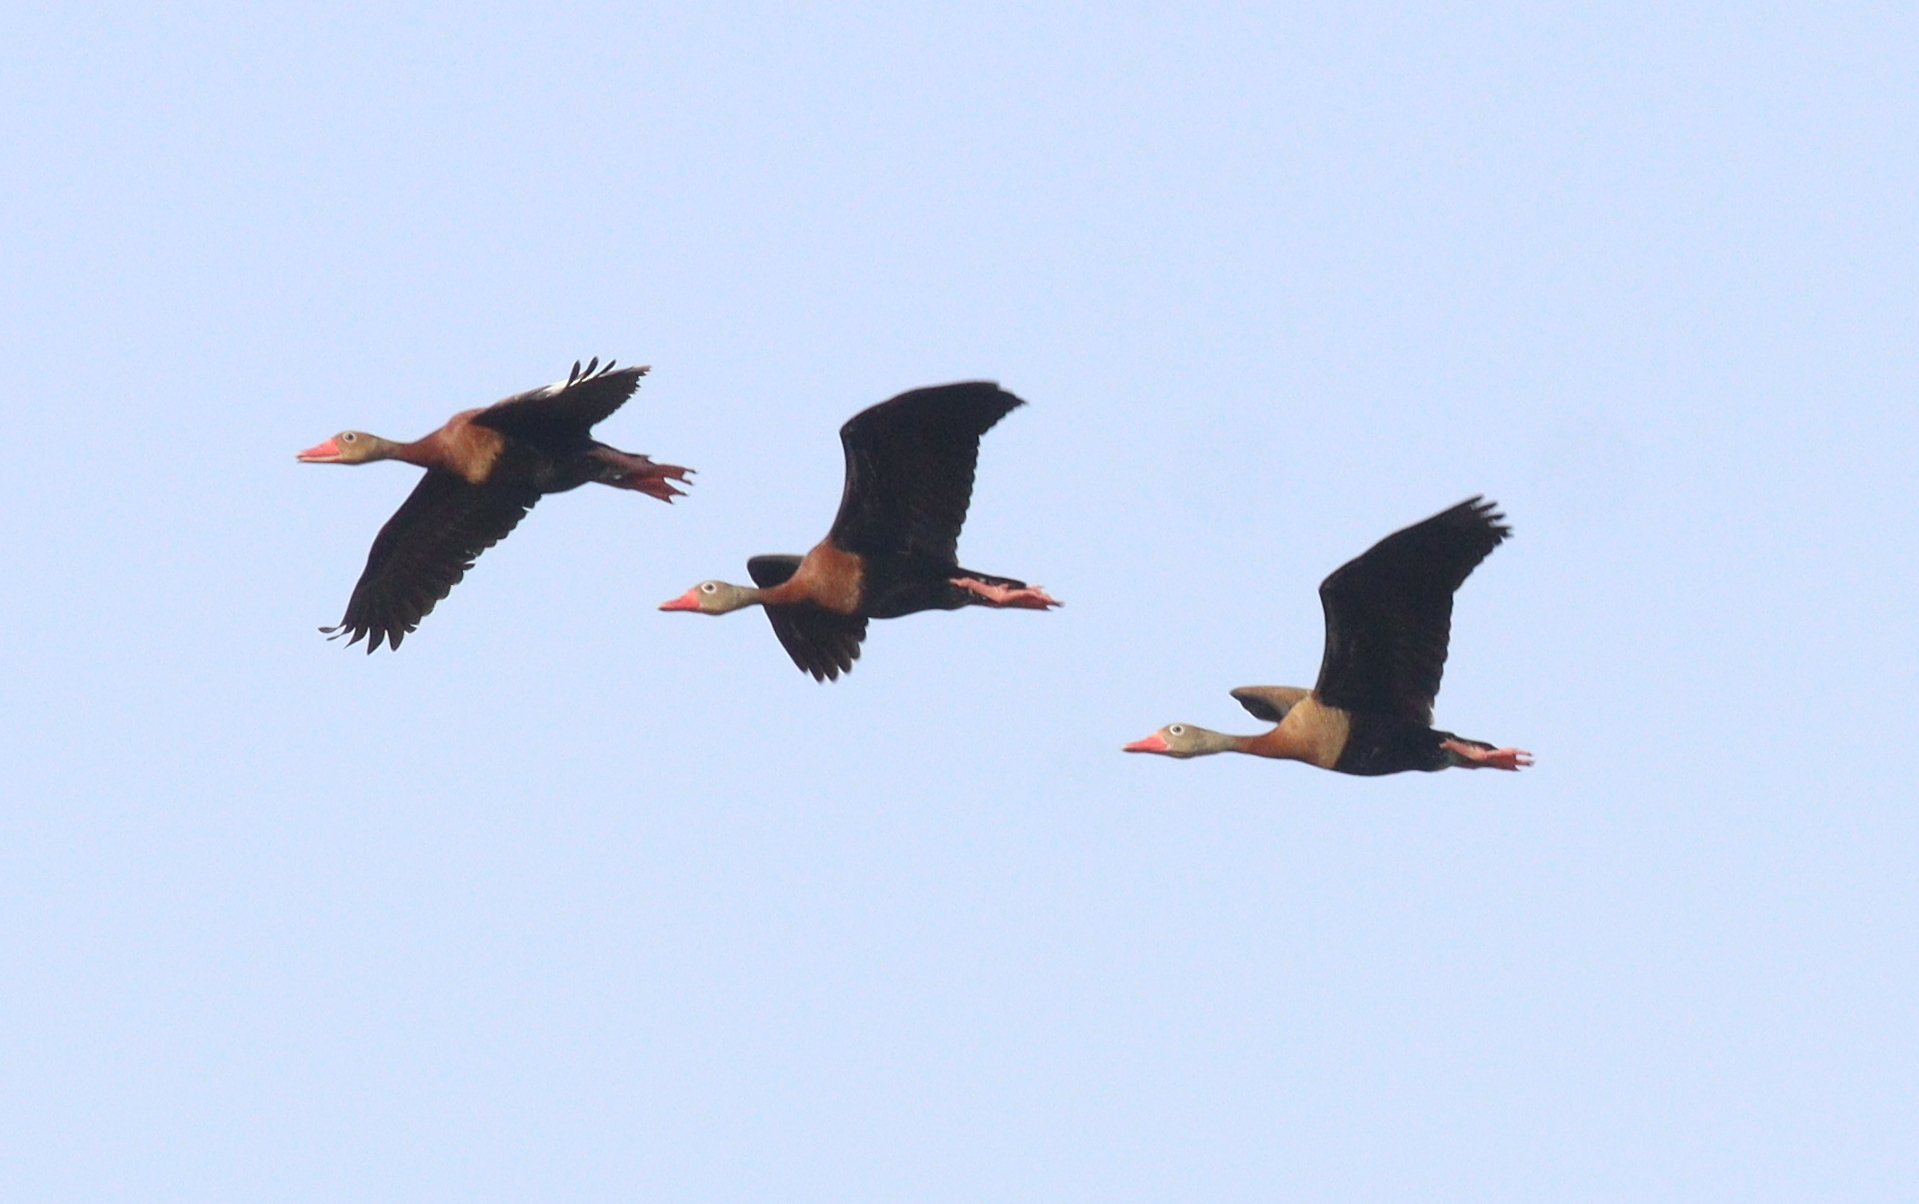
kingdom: Animalia
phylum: Chordata
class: Aves
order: Anseriformes
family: Anatidae
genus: Dendrocygna
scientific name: Dendrocygna autumnalis
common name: Black-bellied whistling duck
